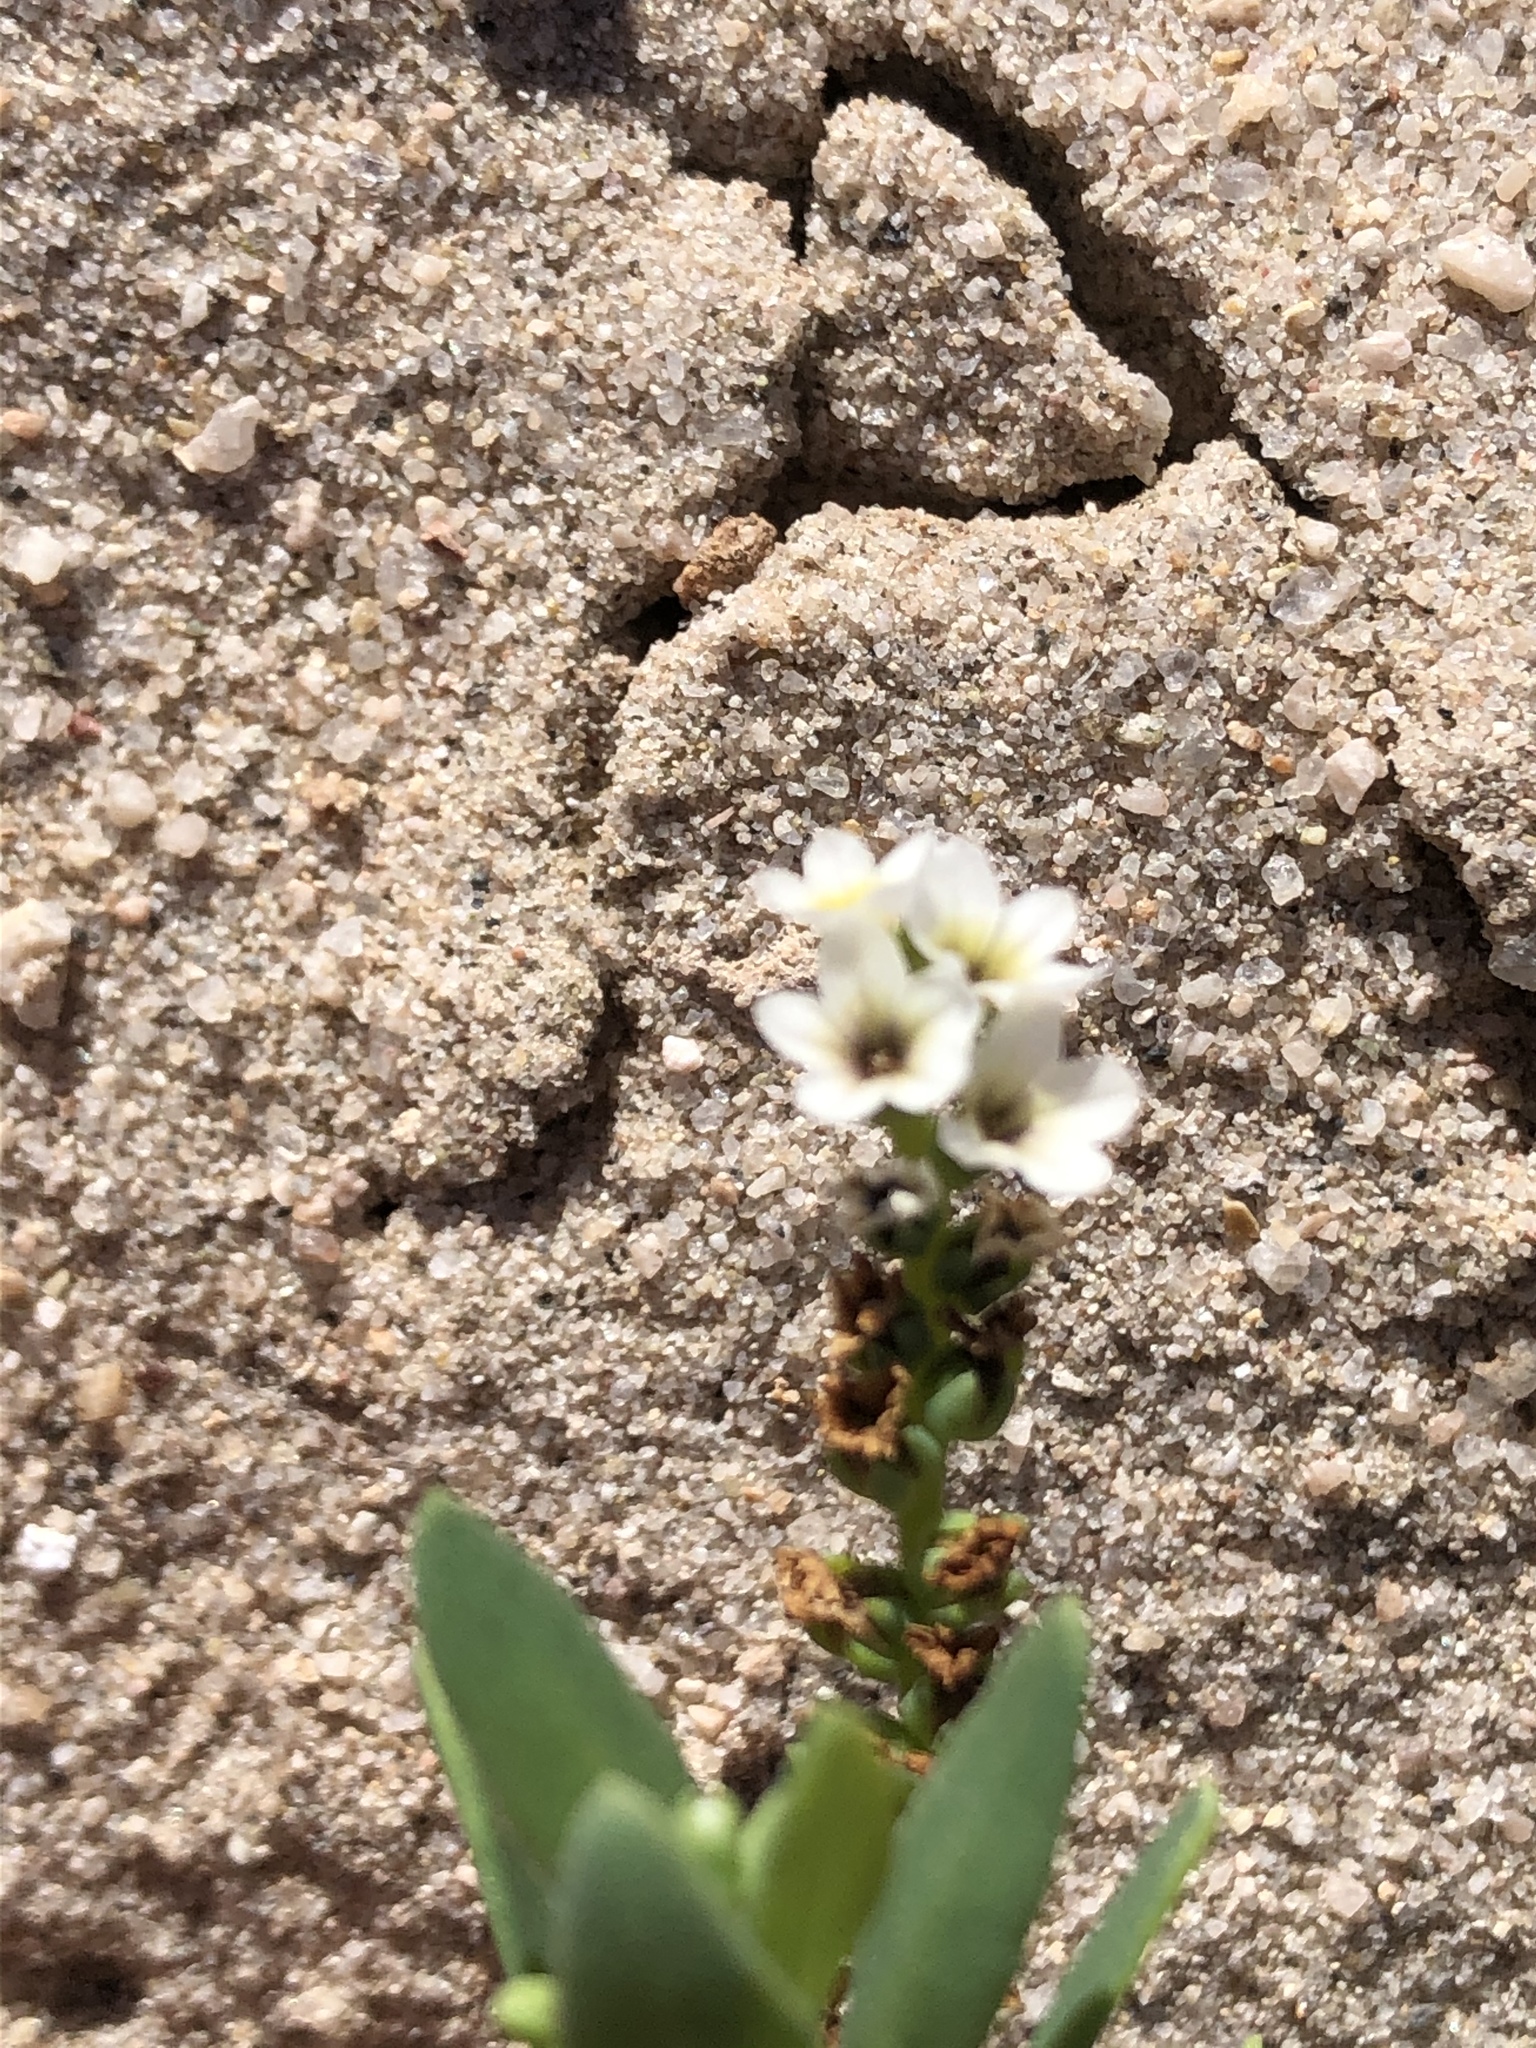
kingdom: Plantae
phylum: Tracheophyta
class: Magnoliopsida
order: Boraginales
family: Heliotropiaceae
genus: Heliotropium
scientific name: Heliotropium curassavicum
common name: Seaside heliotrope
